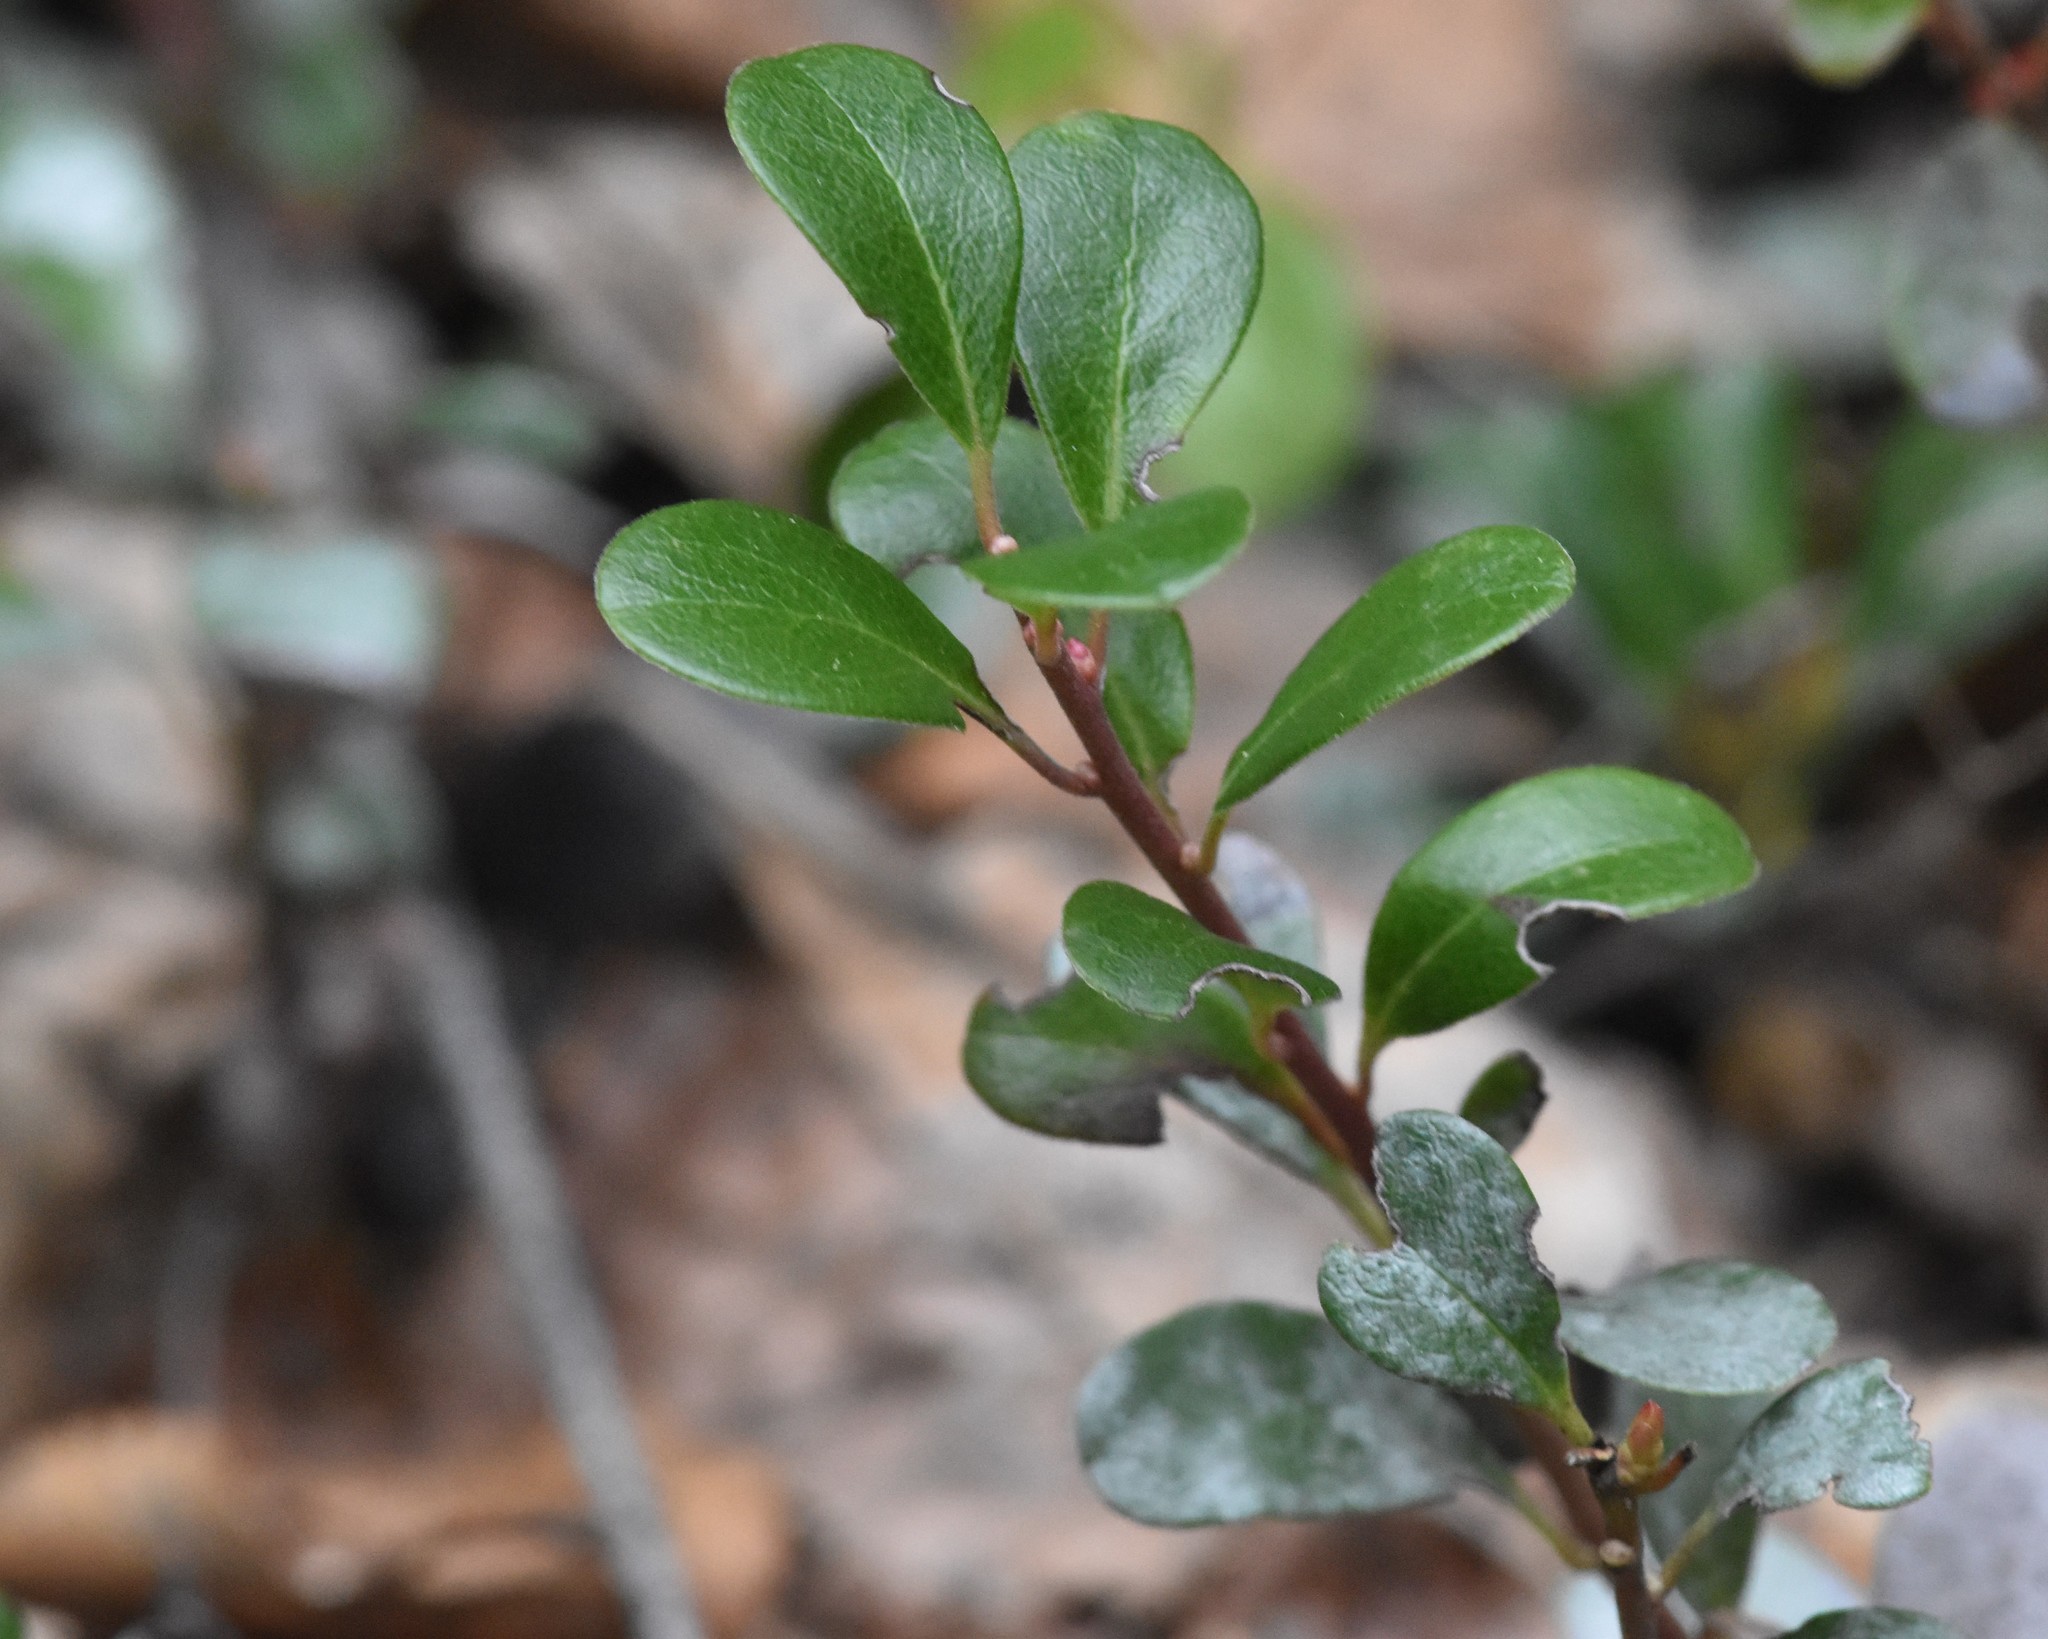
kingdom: Plantae
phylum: Tracheophyta
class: Magnoliopsida
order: Ericales
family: Ericaceae
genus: Arctostaphylos
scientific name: Arctostaphylos uva-ursi
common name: Bearberry
